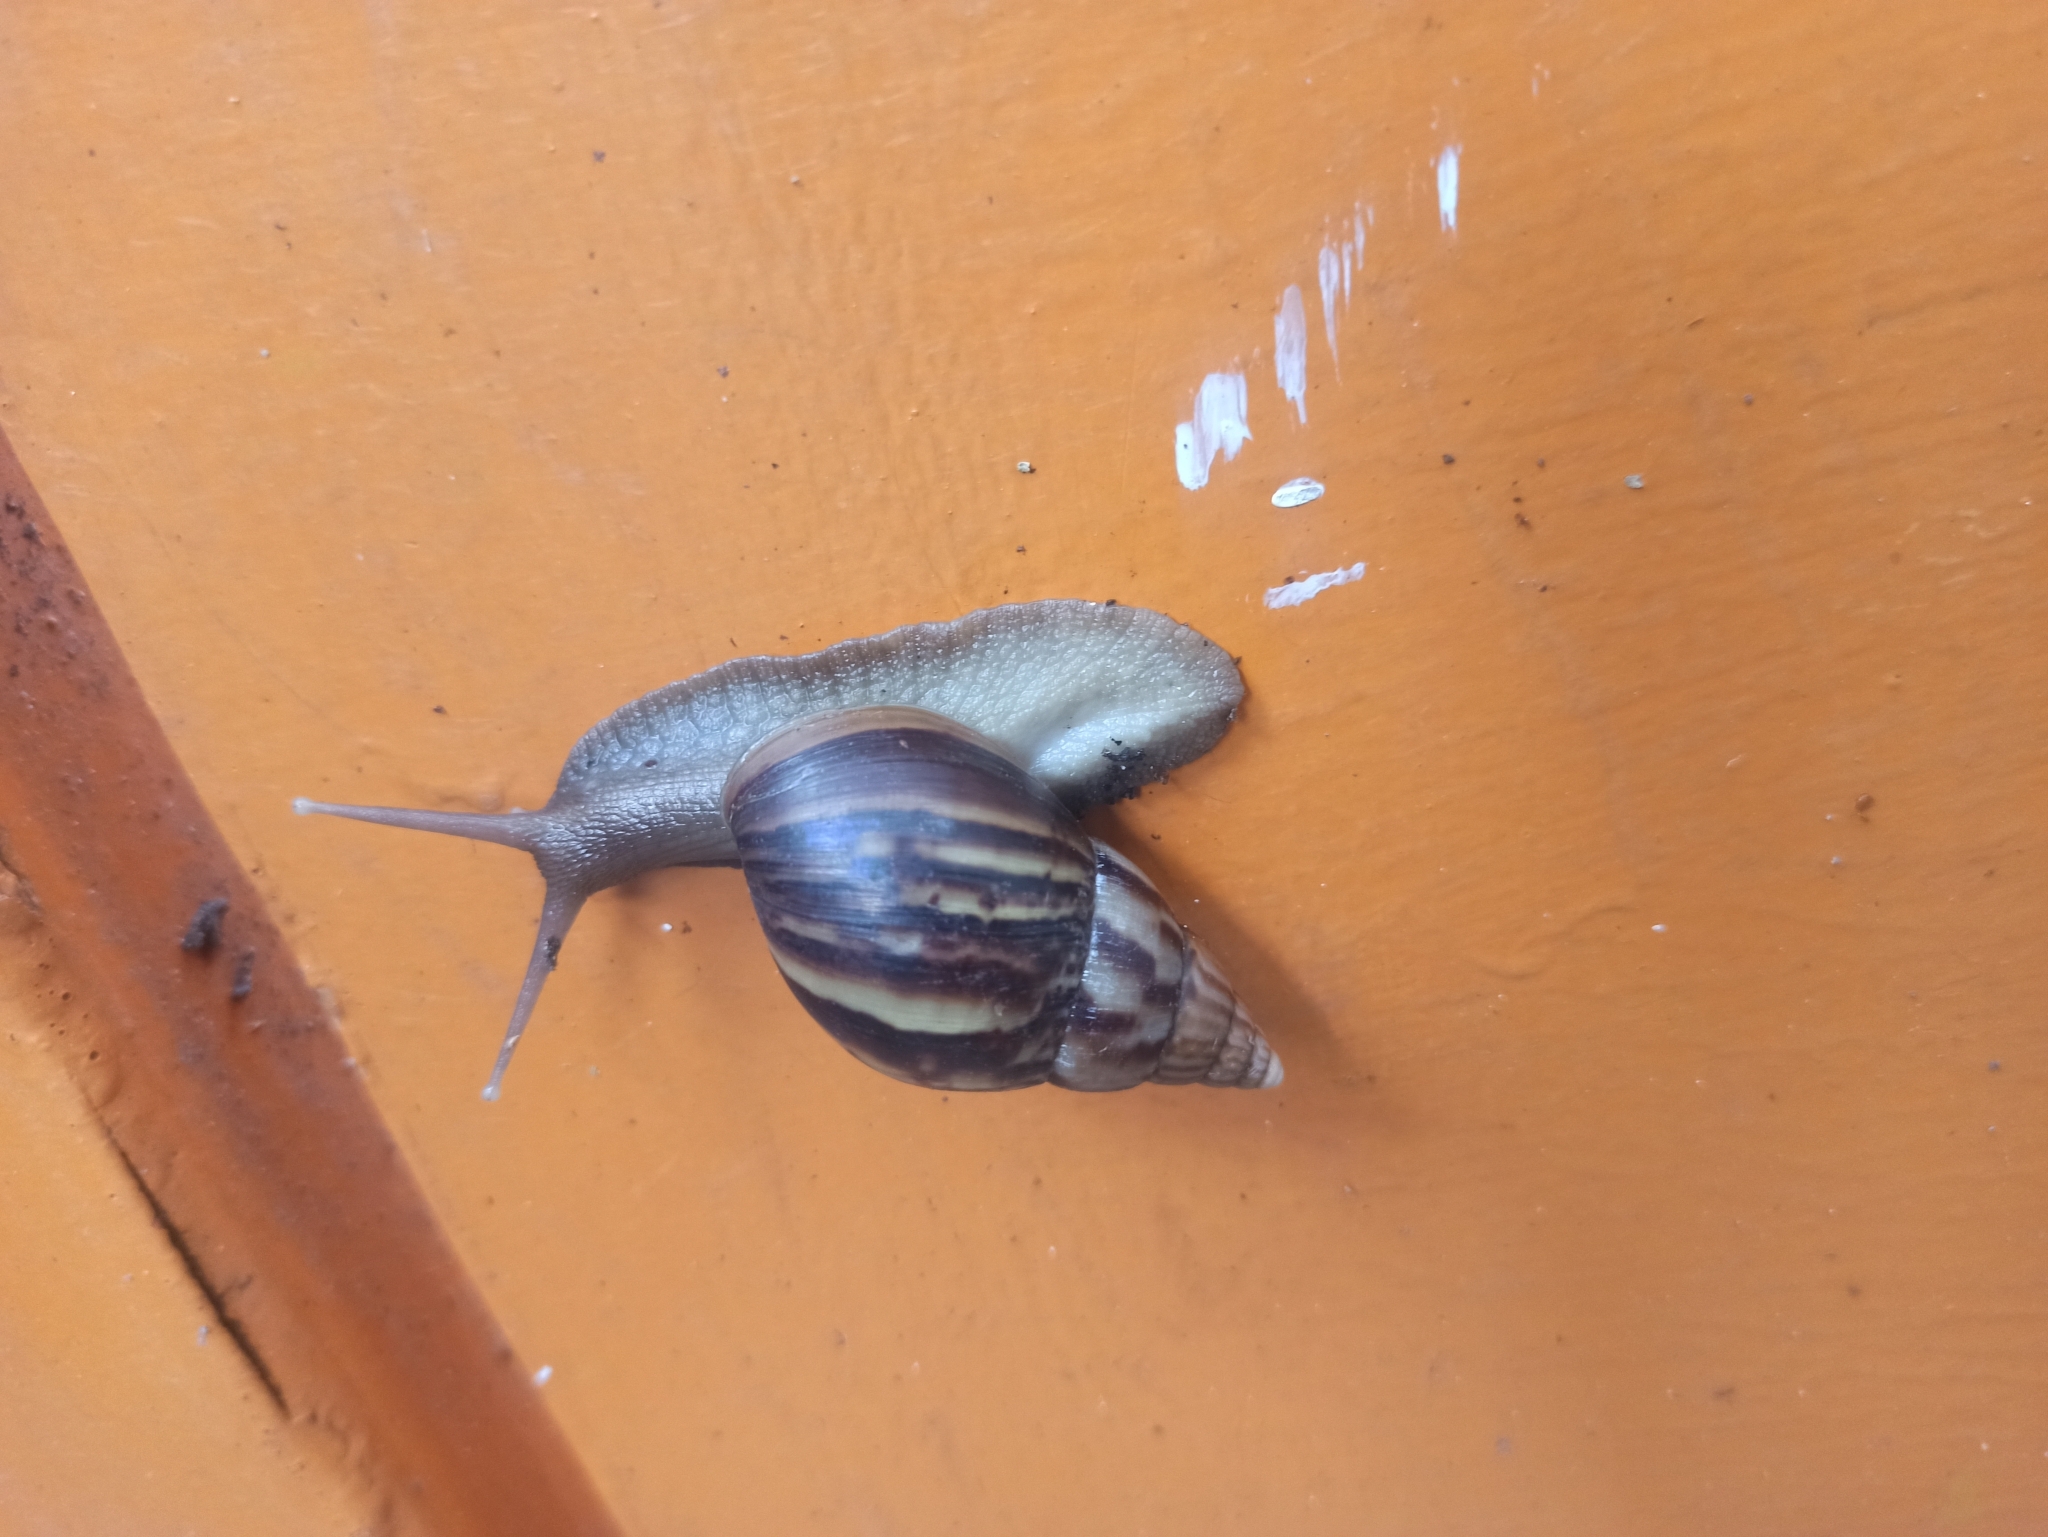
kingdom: Animalia
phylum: Mollusca
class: Gastropoda
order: Stylommatophora
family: Achatinidae
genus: Lissachatina
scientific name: Lissachatina fulica
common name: Giant african snail
